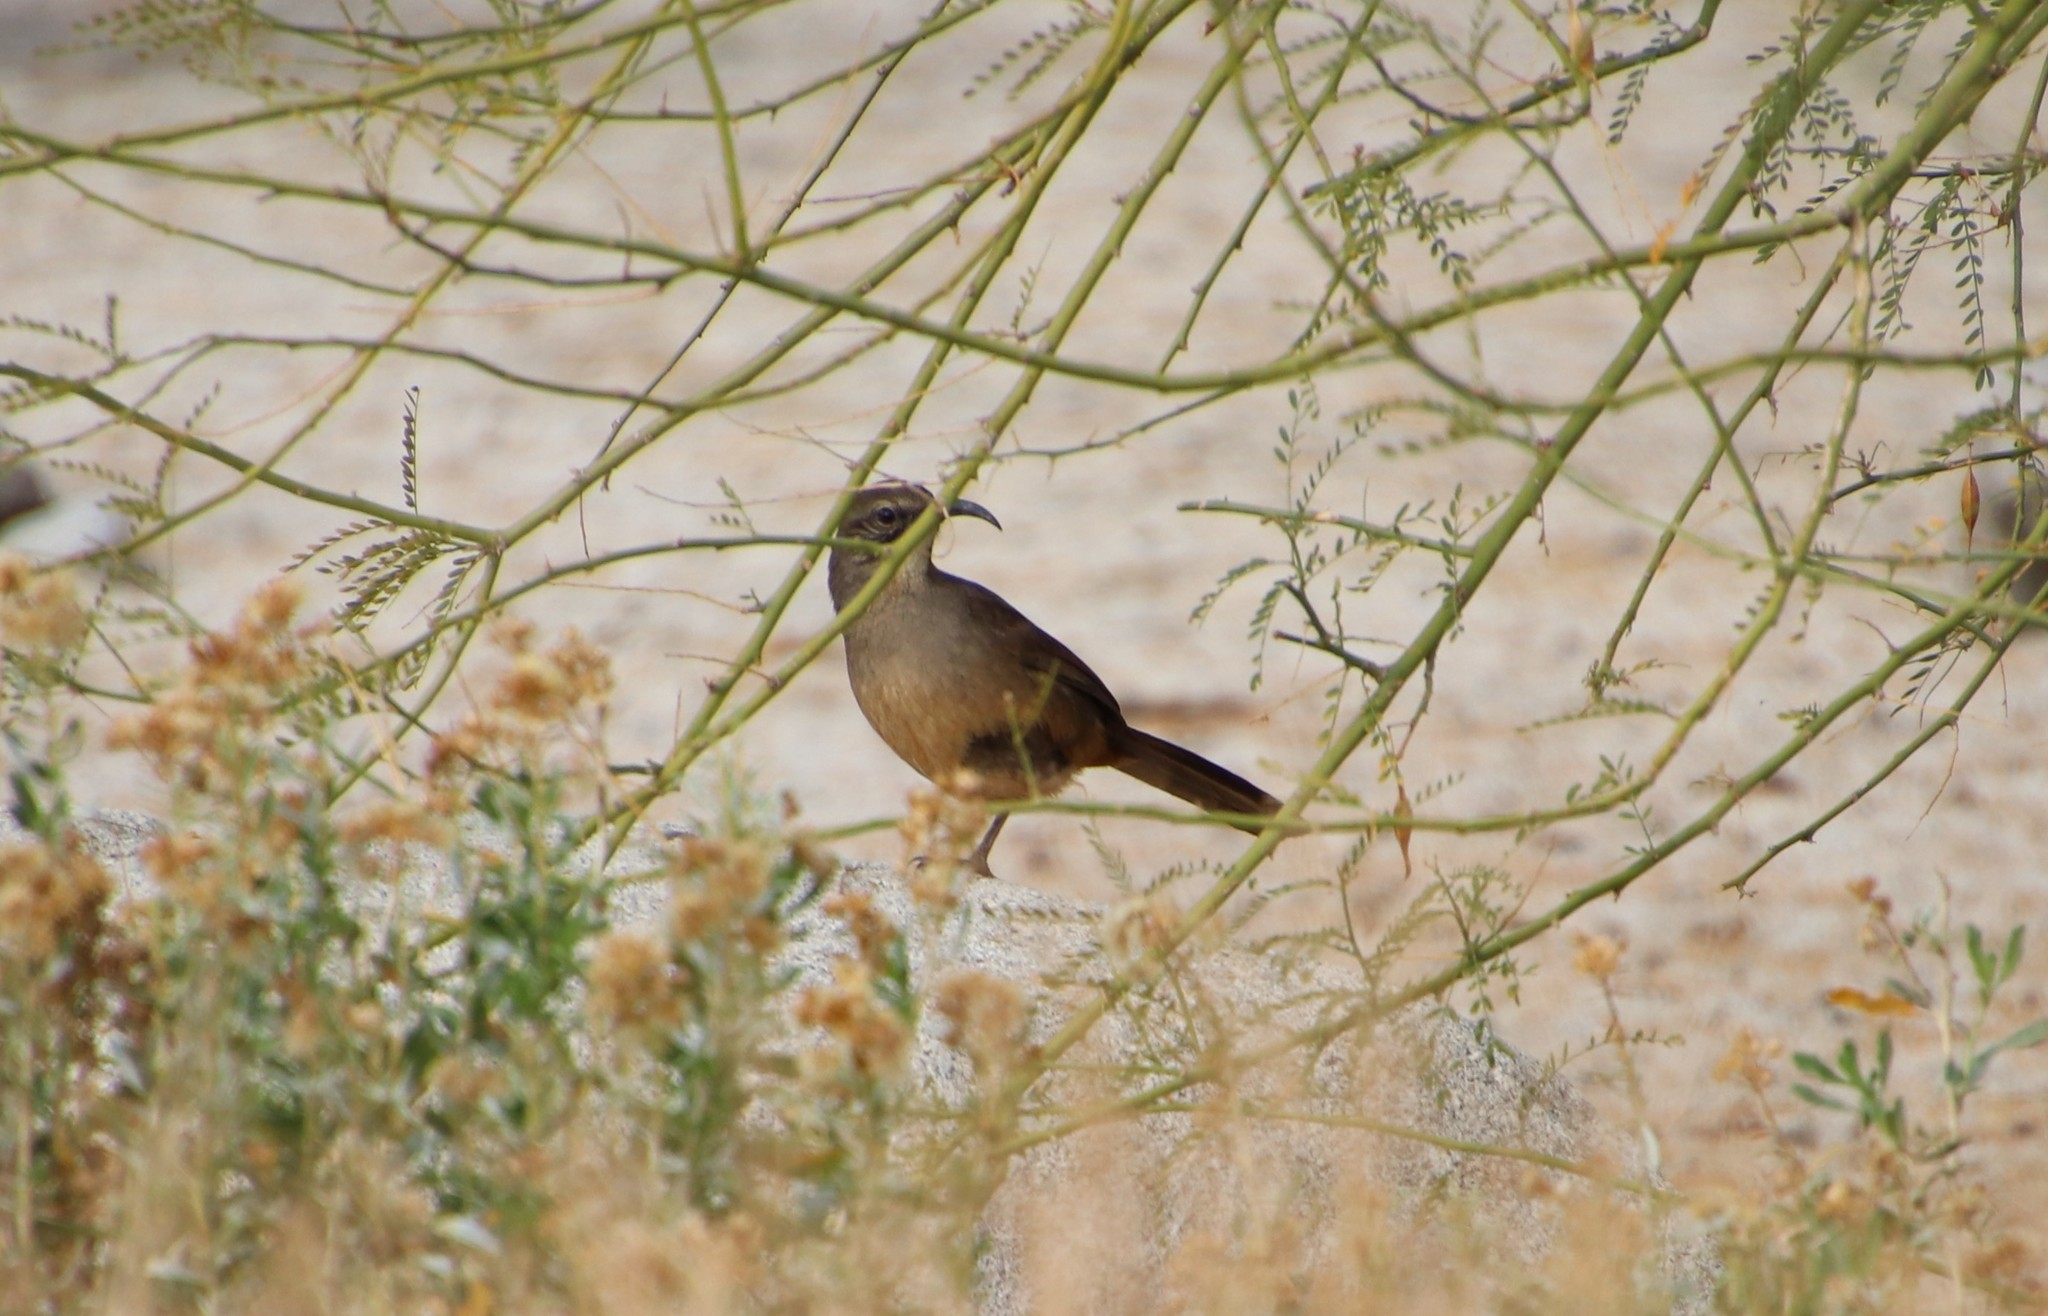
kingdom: Animalia
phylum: Chordata
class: Aves
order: Passeriformes
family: Mimidae
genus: Toxostoma
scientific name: Toxostoma redivivum
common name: California thrasher
